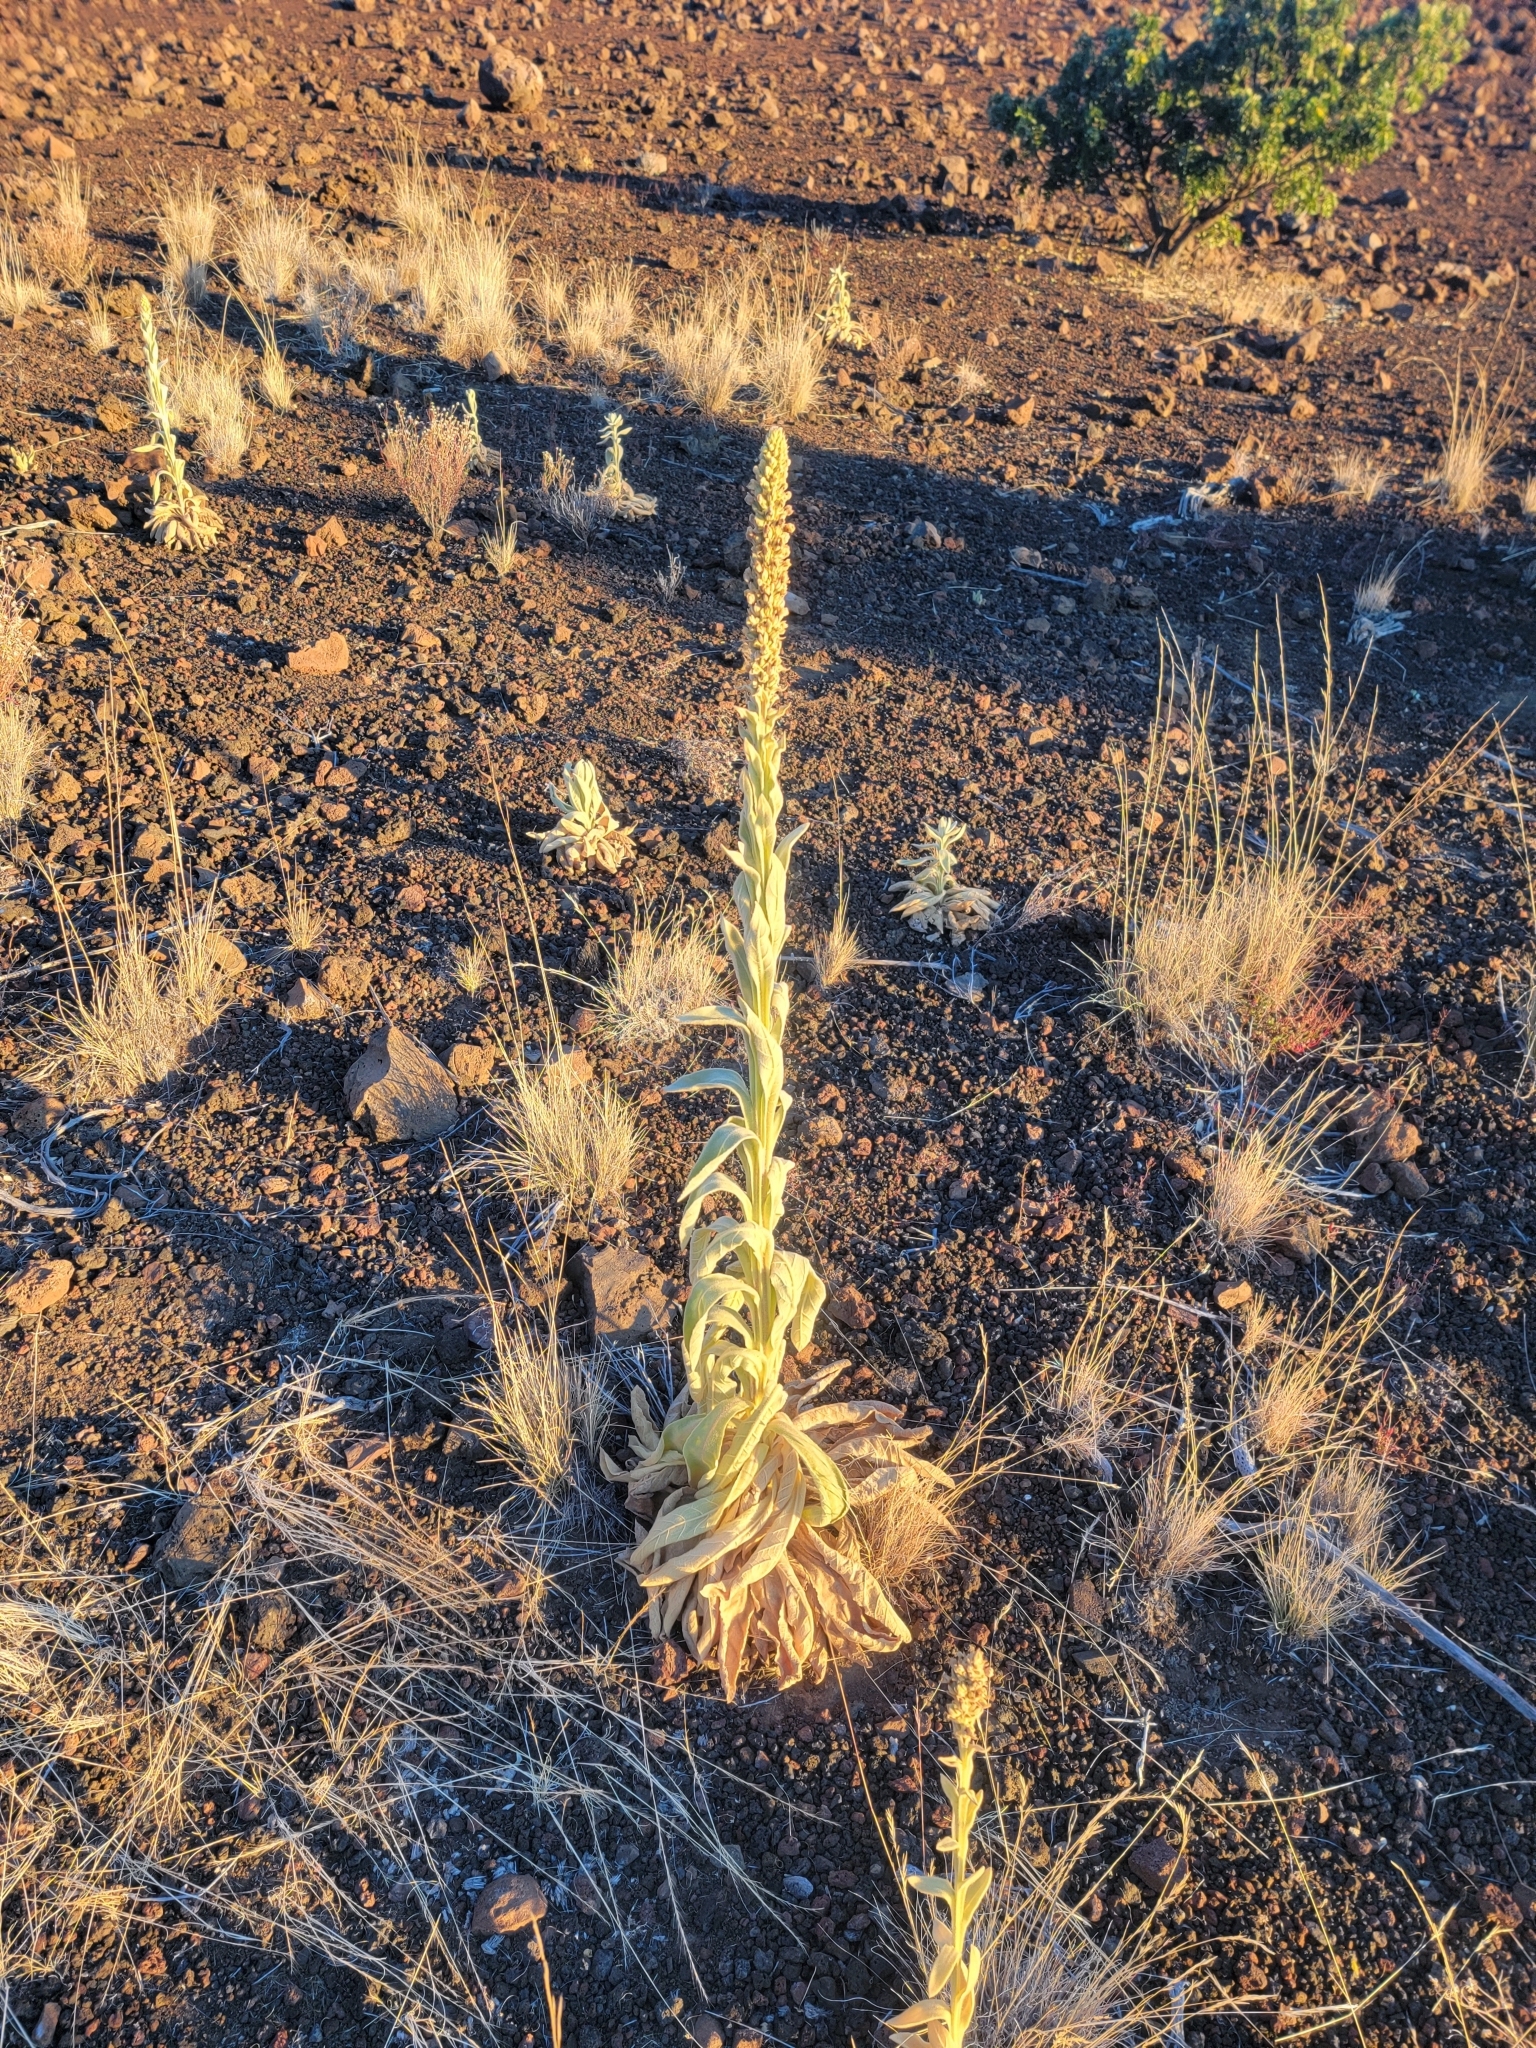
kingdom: Plantae
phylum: Tracheophyta
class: Magnoliopsida
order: Lamiales
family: Scrophulariaceae
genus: Verbascum
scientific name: Verbascum thapsus
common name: Common mullein
